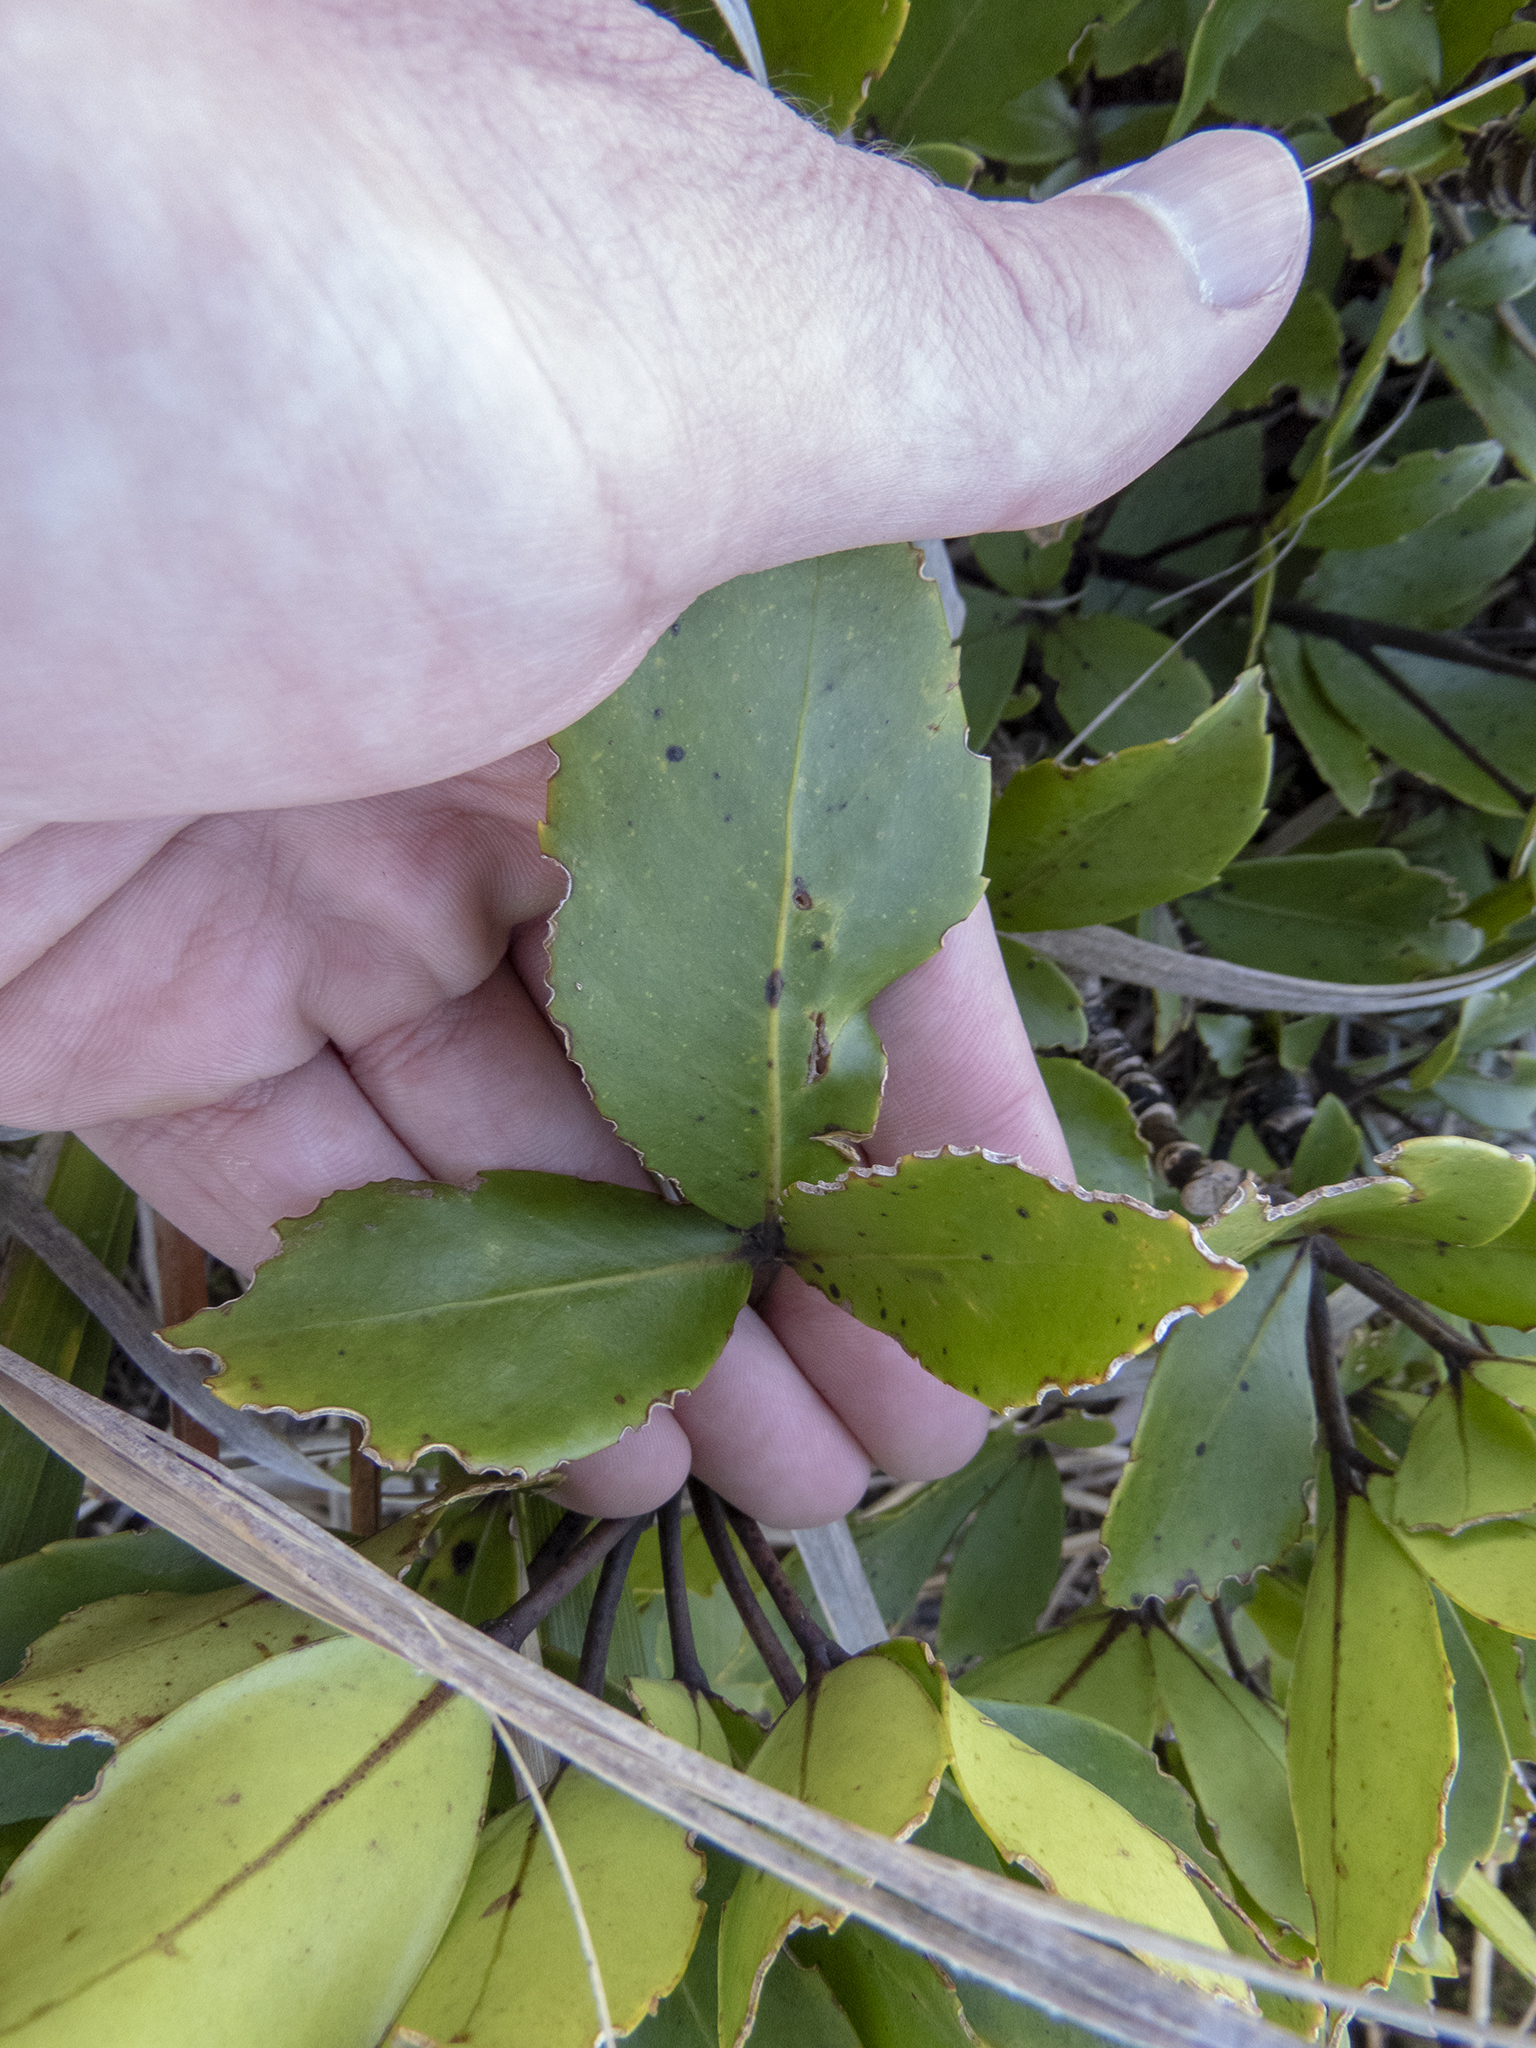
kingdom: Plantae
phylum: Tracheophyta
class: Magnoliopsida
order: Apiales
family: Araliaceae
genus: Neopanax
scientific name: Neopanax colensoi
